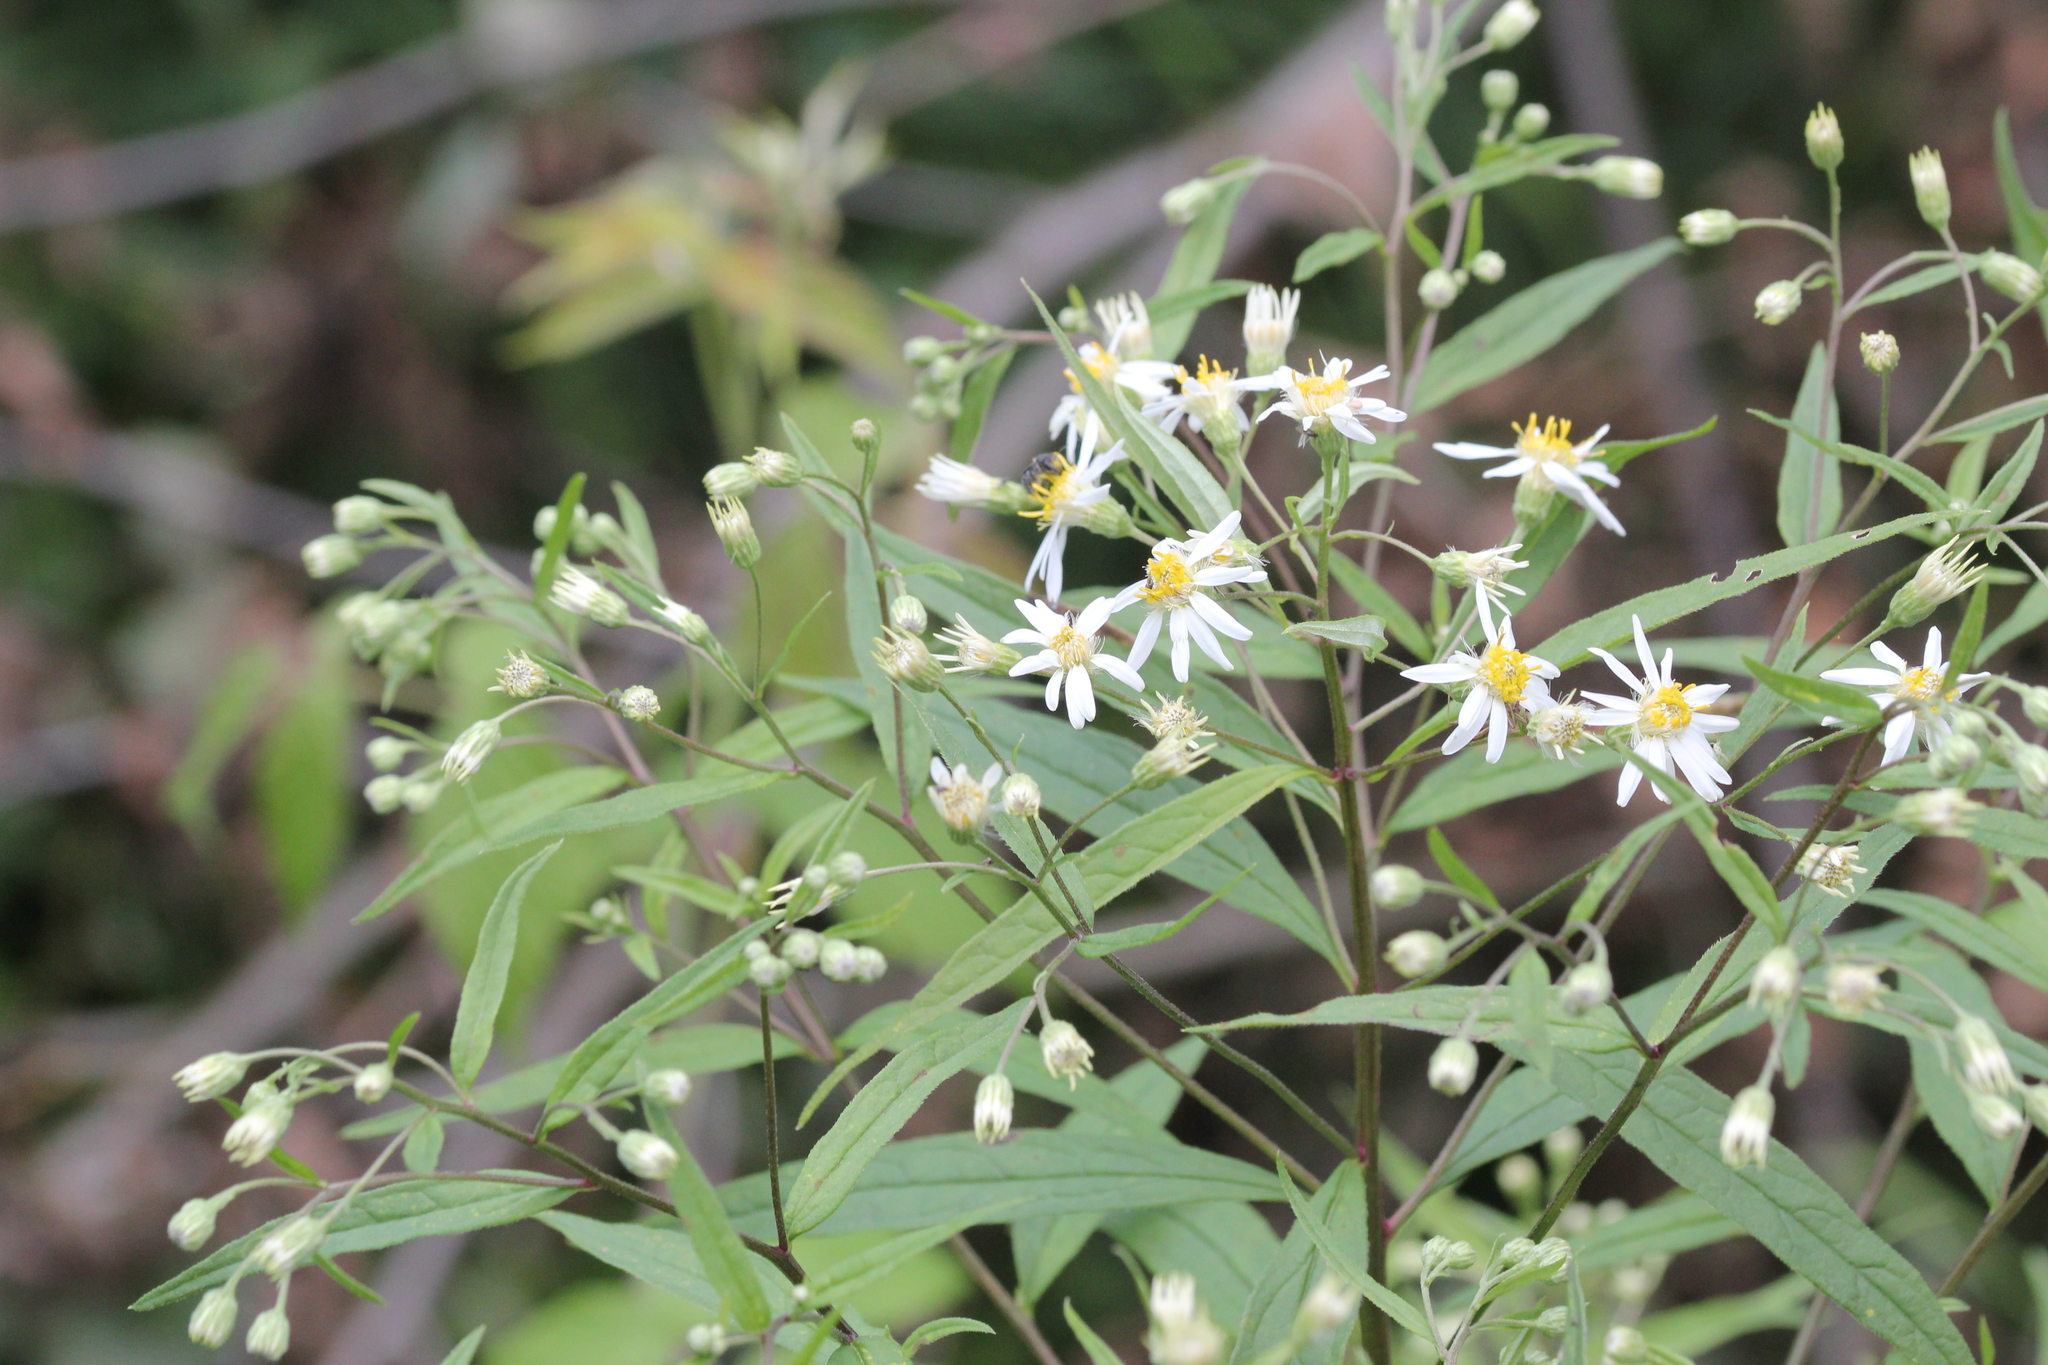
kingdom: Plantae
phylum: Tracheophyta
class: Magnoliopsida
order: Asterales
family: Asteraceae
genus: Doellingeria
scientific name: Doellingeria umbellata
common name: Flat-top white aster
